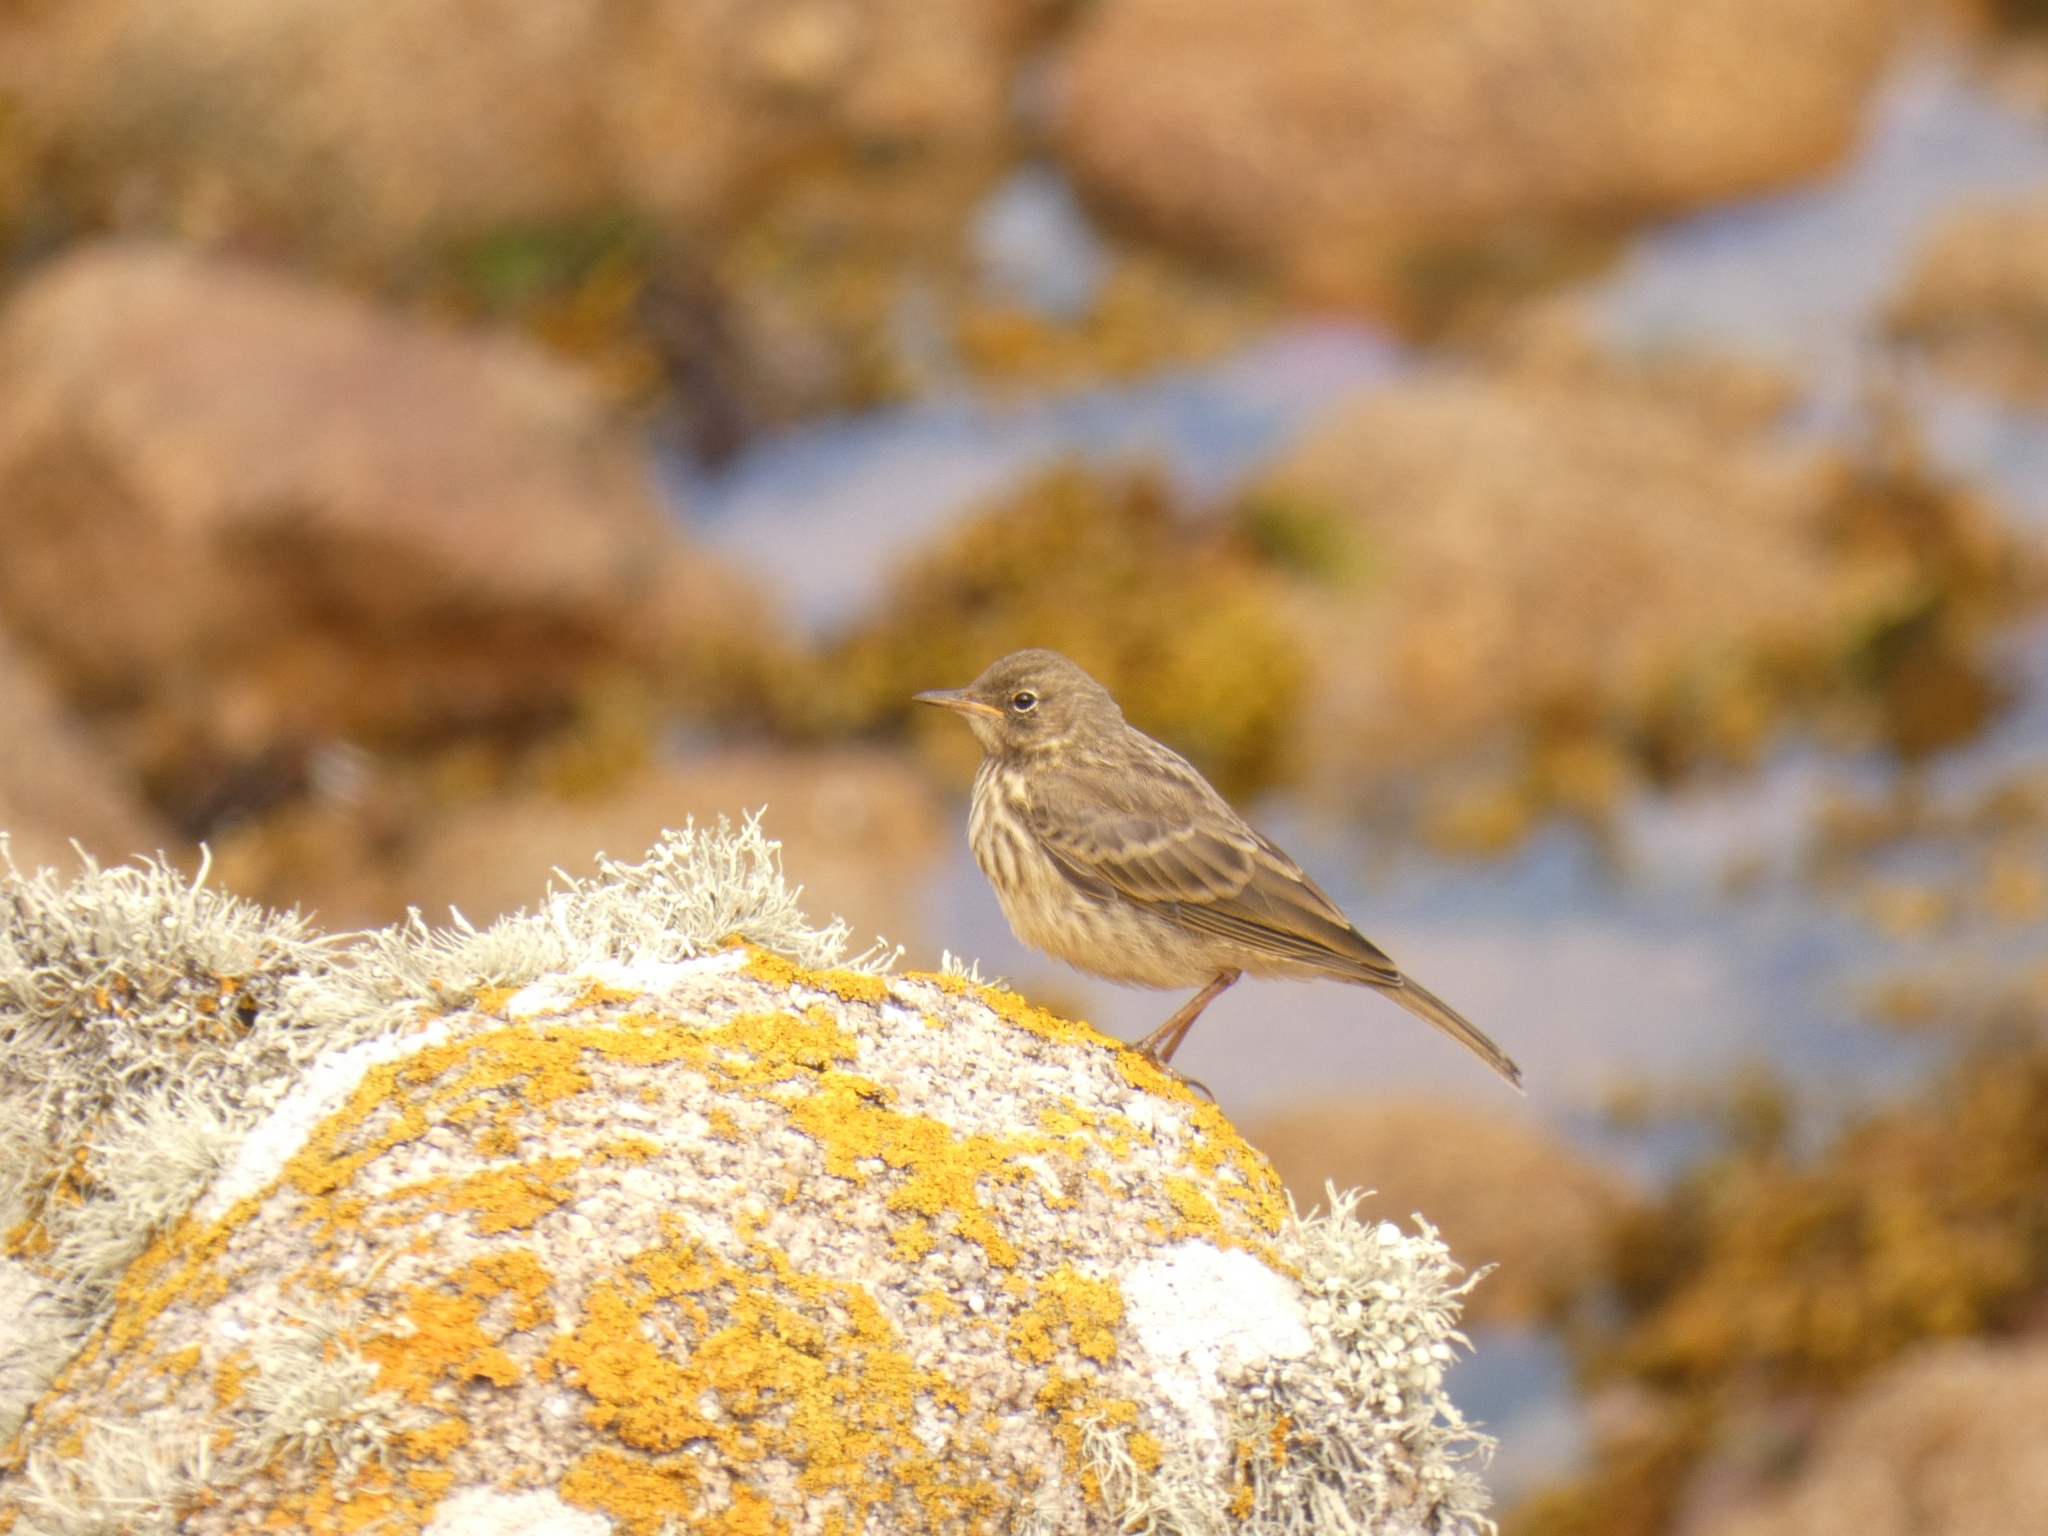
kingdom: Animalia
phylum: Chordata
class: Aves
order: Passeriformes
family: Motacillidae
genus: Anthus
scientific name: Anthus petrosus
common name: Eurasian rock pipit
